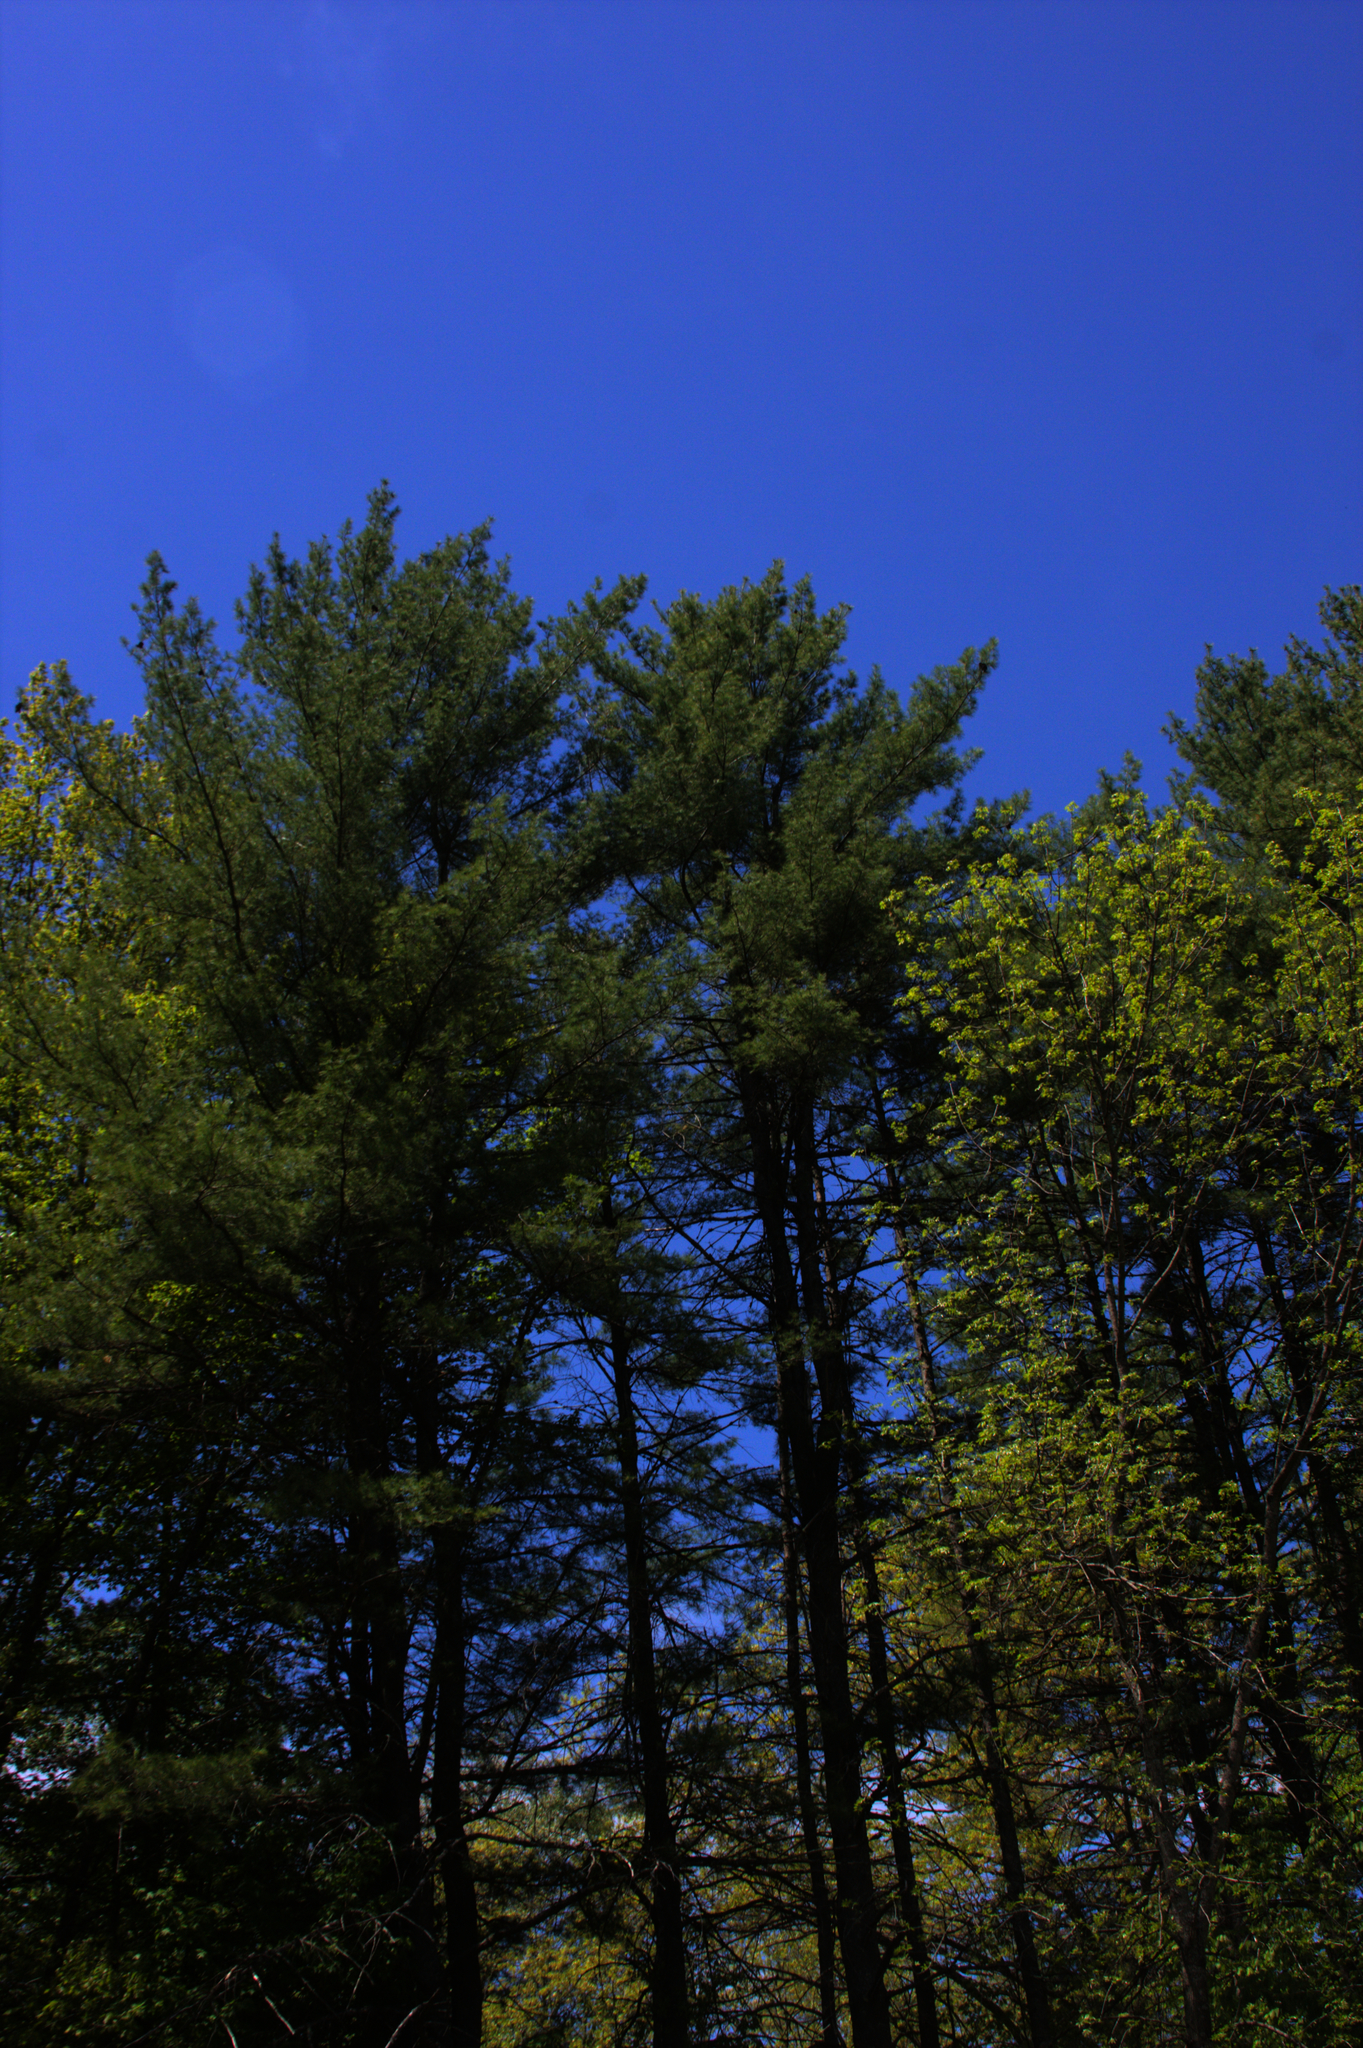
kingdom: Plantae
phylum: Tracheophyta
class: Pinopsida
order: Pinales
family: Pinaceae
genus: Pinus
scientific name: Pinus strobus
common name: Weymouth pine
